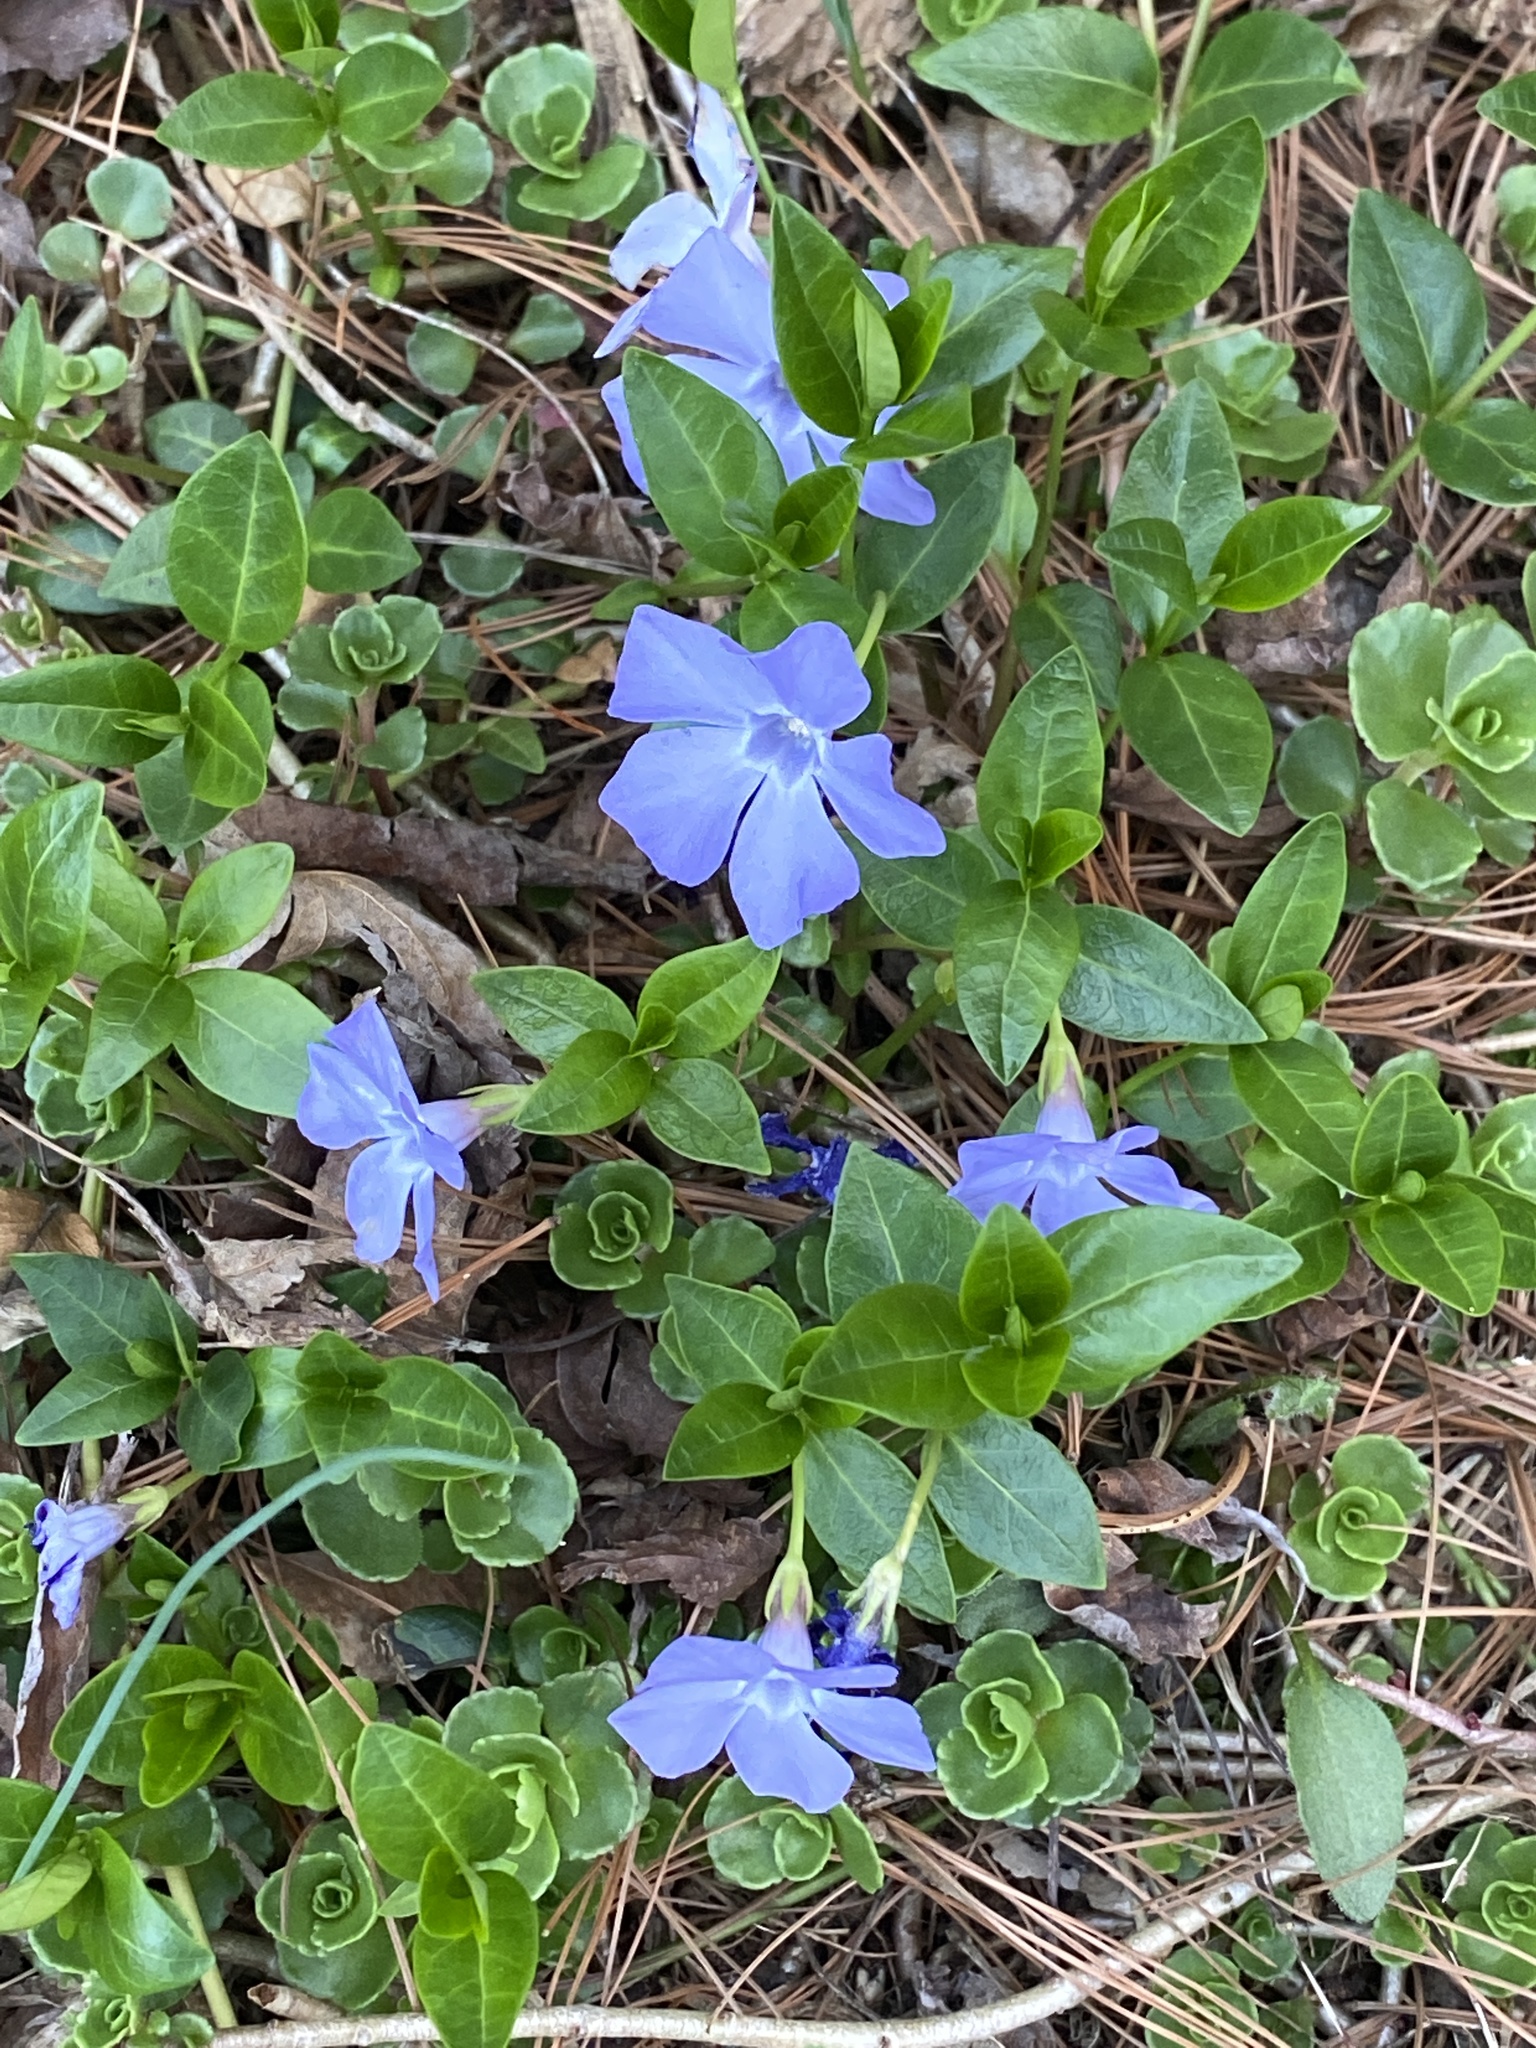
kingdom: Plantae
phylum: Tracheophyta
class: Magnoliopsida
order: Gentianales
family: Apocynaceae
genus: Vinca
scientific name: Vinca minor
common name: Lesser periwinkle
